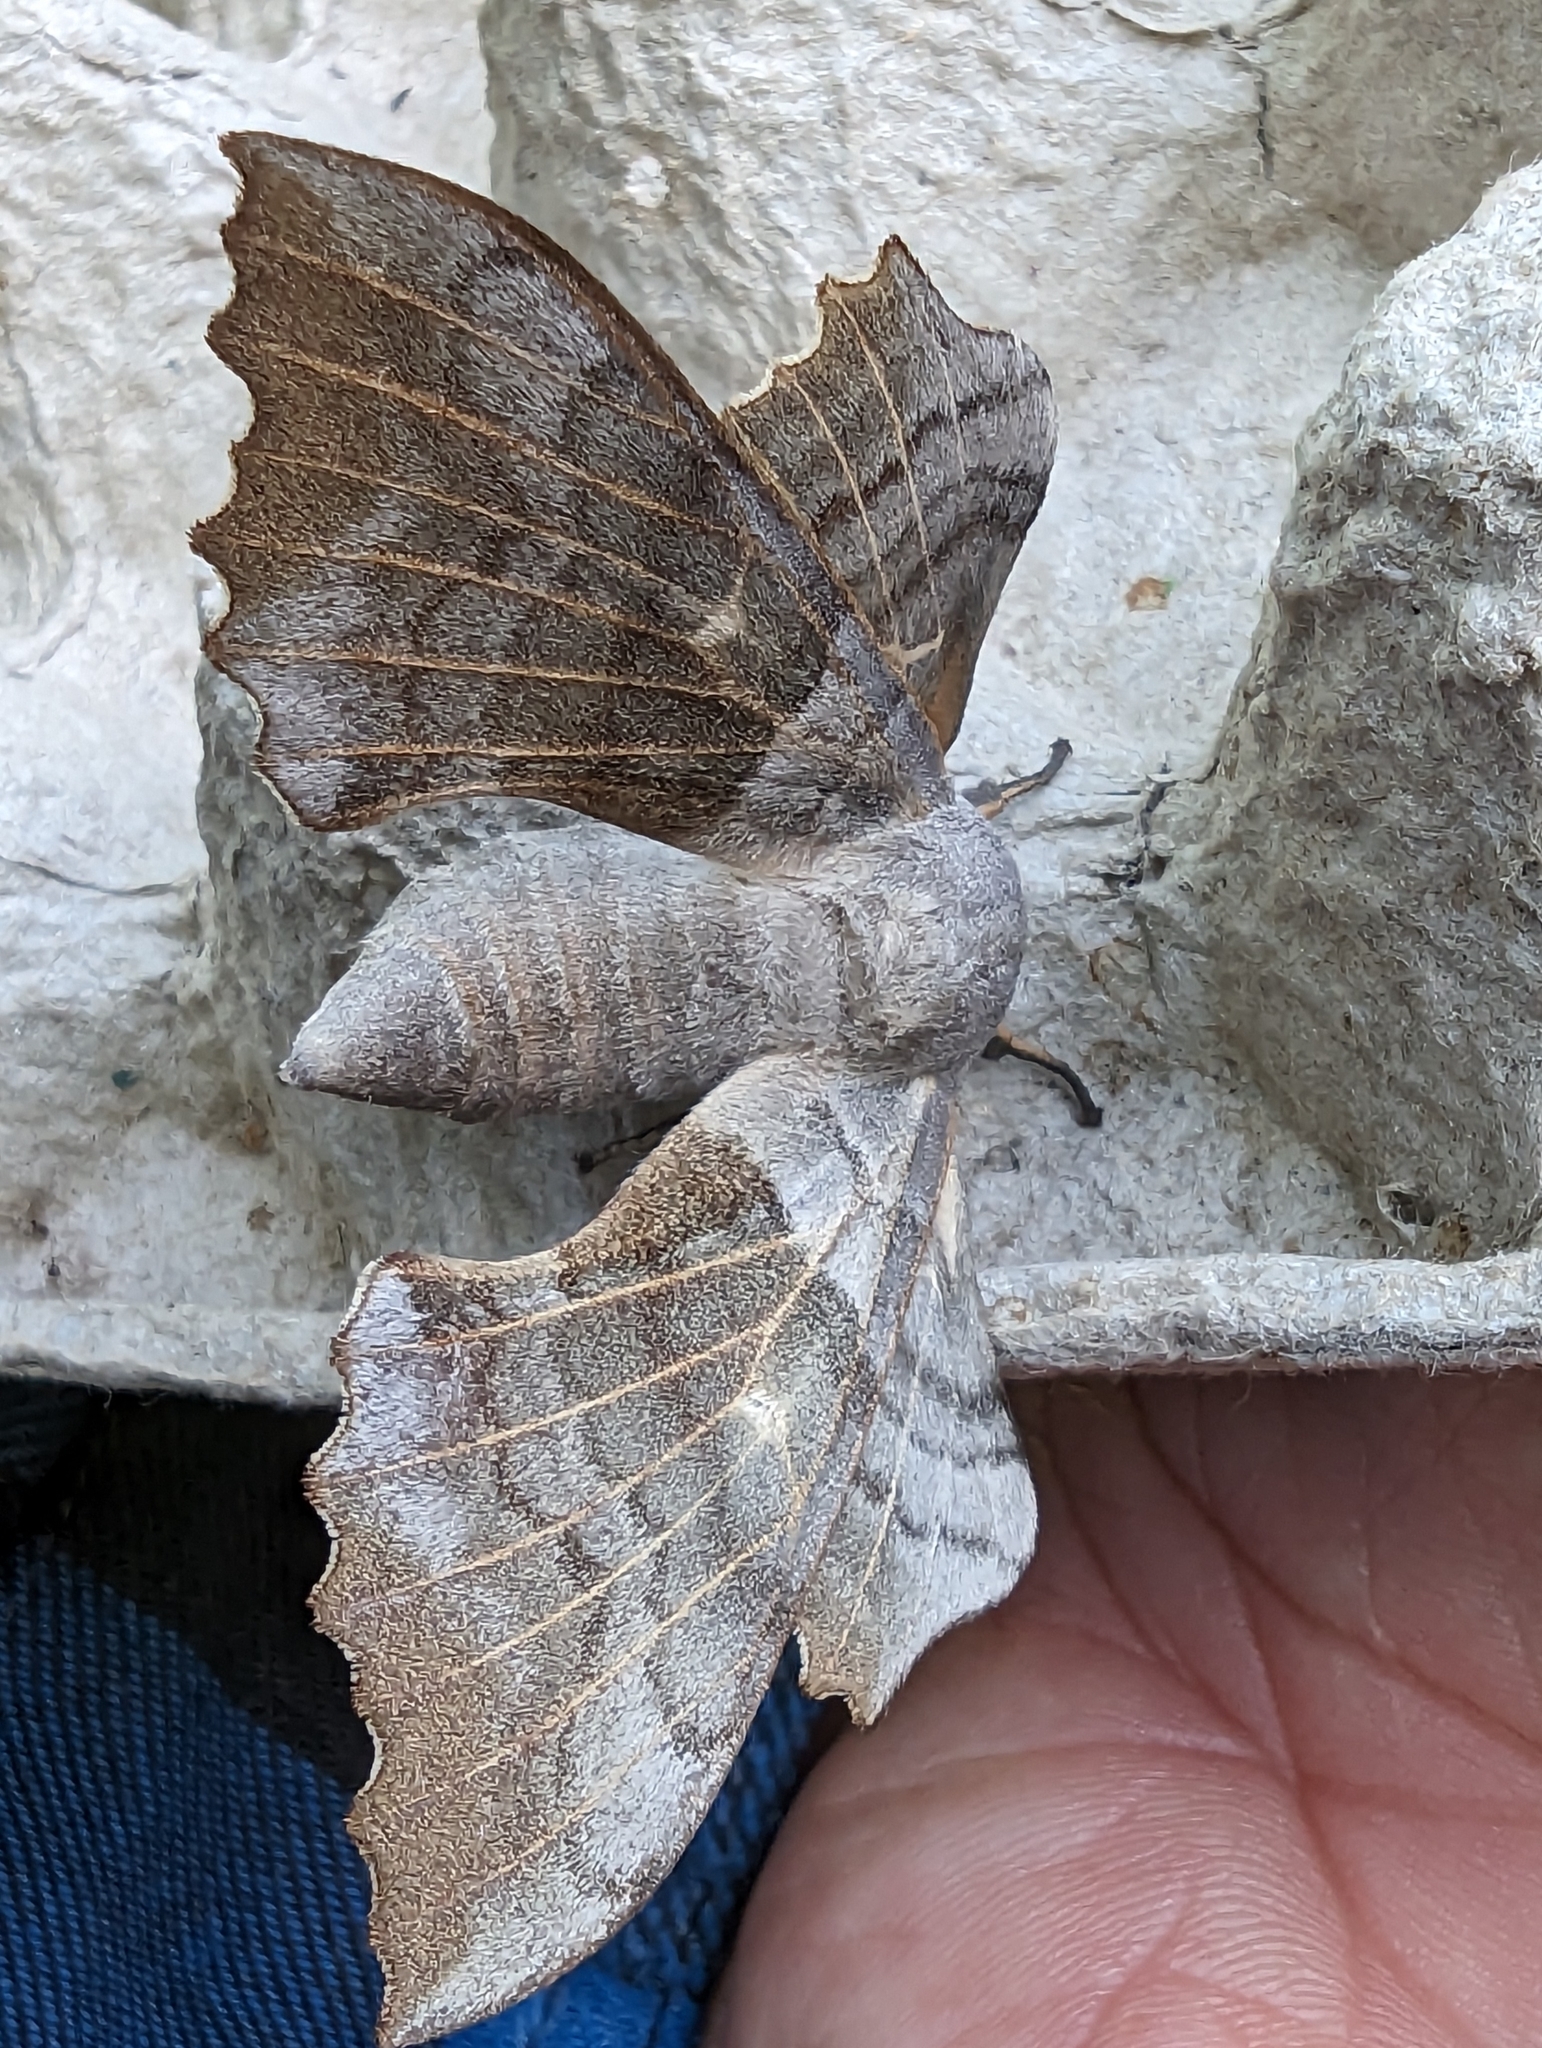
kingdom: Animalia
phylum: Arthropoda
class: Insecta
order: Lepidoptera
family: Sphingidae
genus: Laothoe
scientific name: Laothoe populi
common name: Poplar hawk-moth
